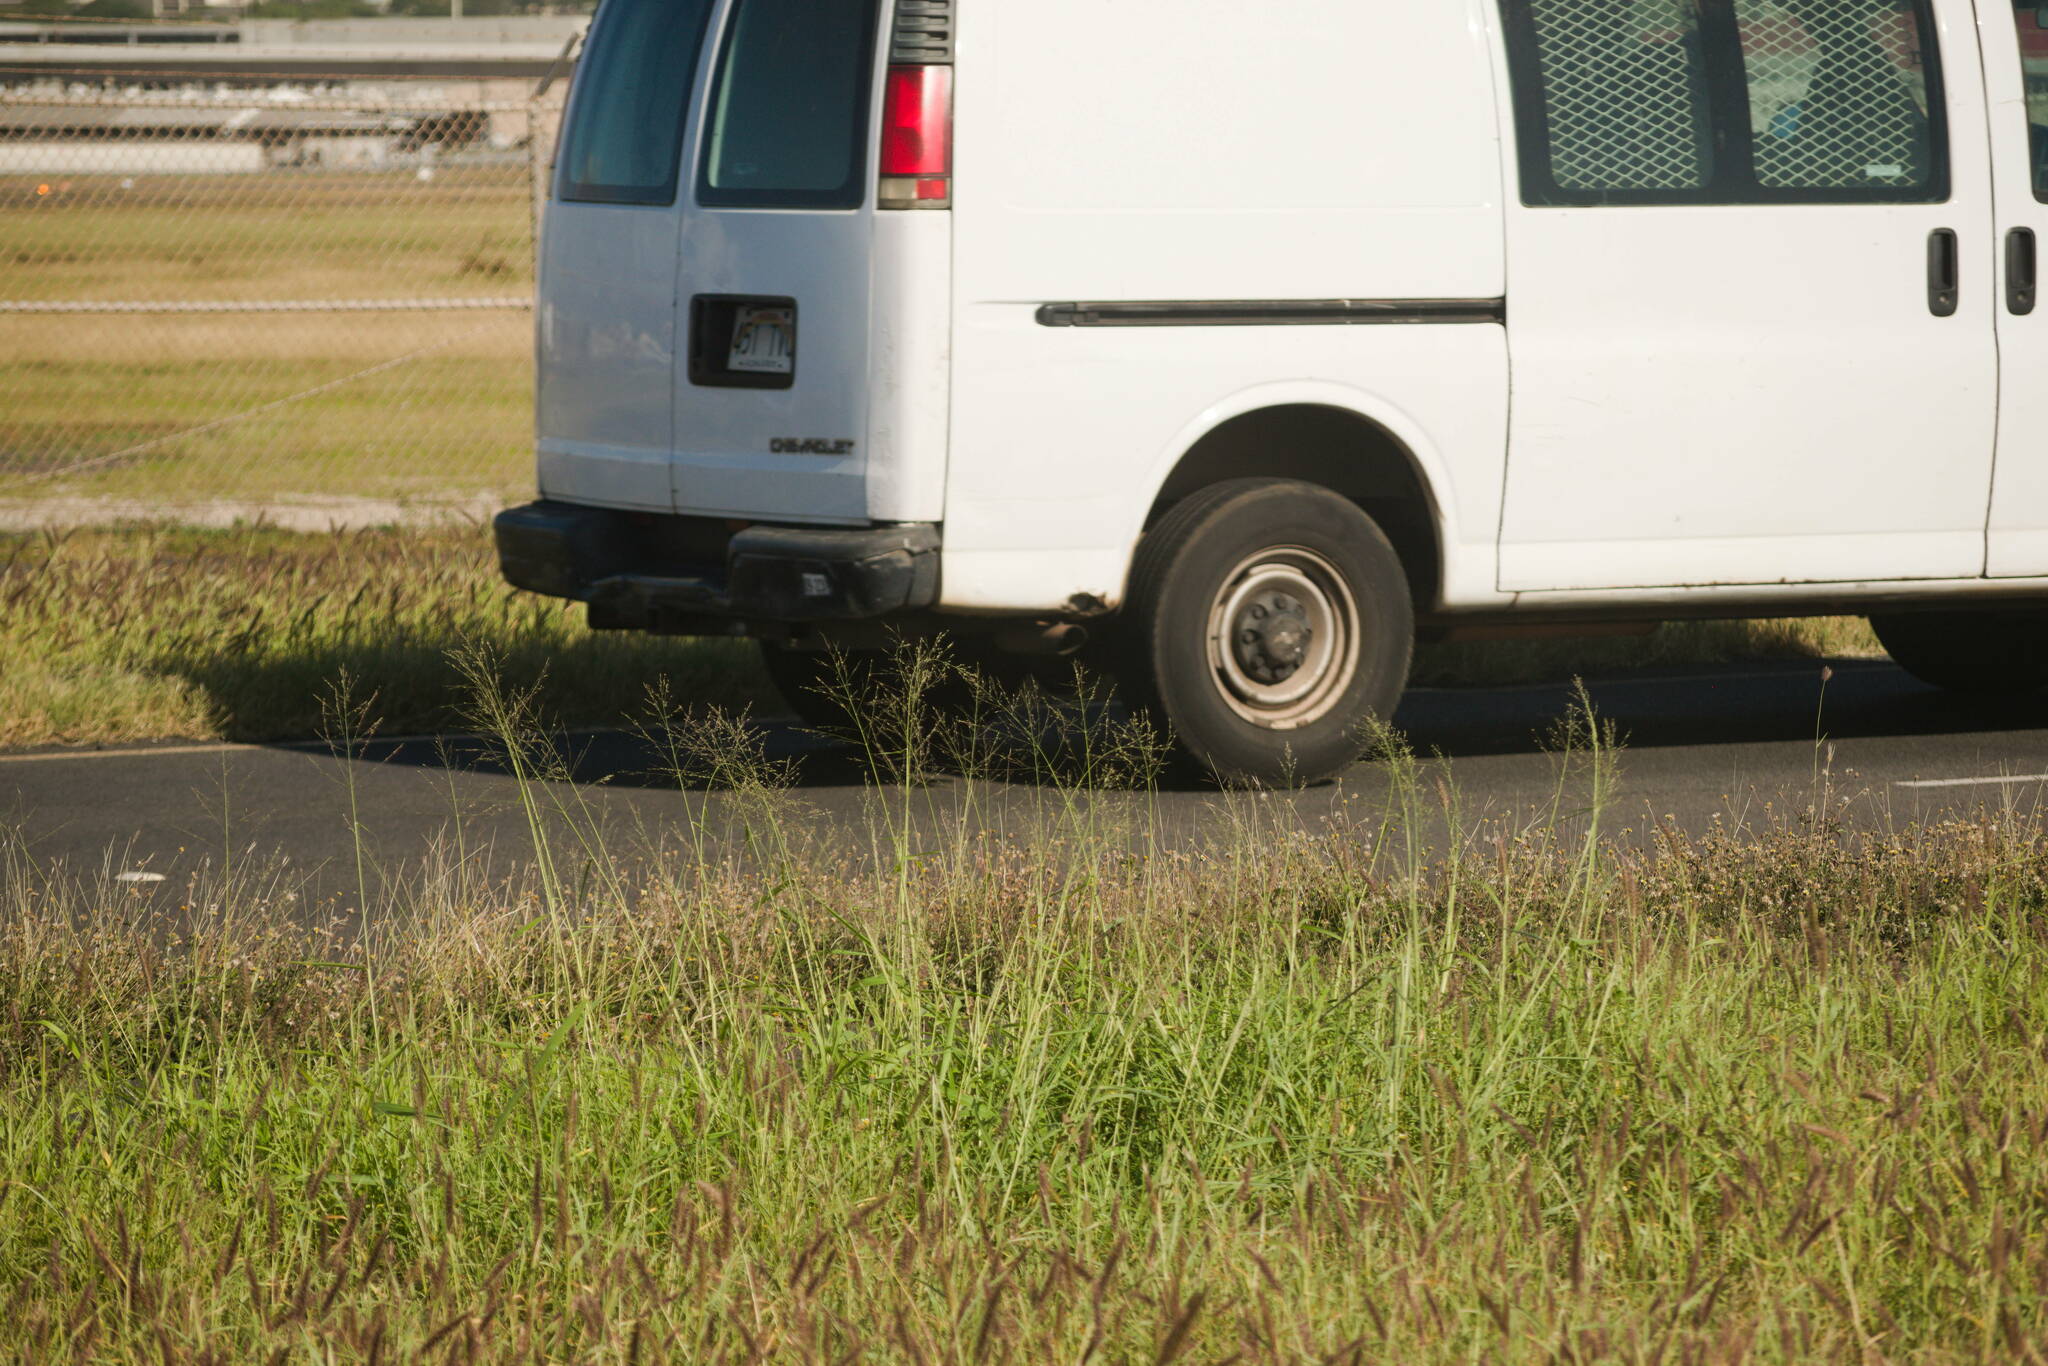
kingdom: Plantae
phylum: Tracheophyta
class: Liliopsida
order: Poales
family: Poaceae
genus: Megathyrsus
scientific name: Megathyrsus maximus
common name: Guineagrass
